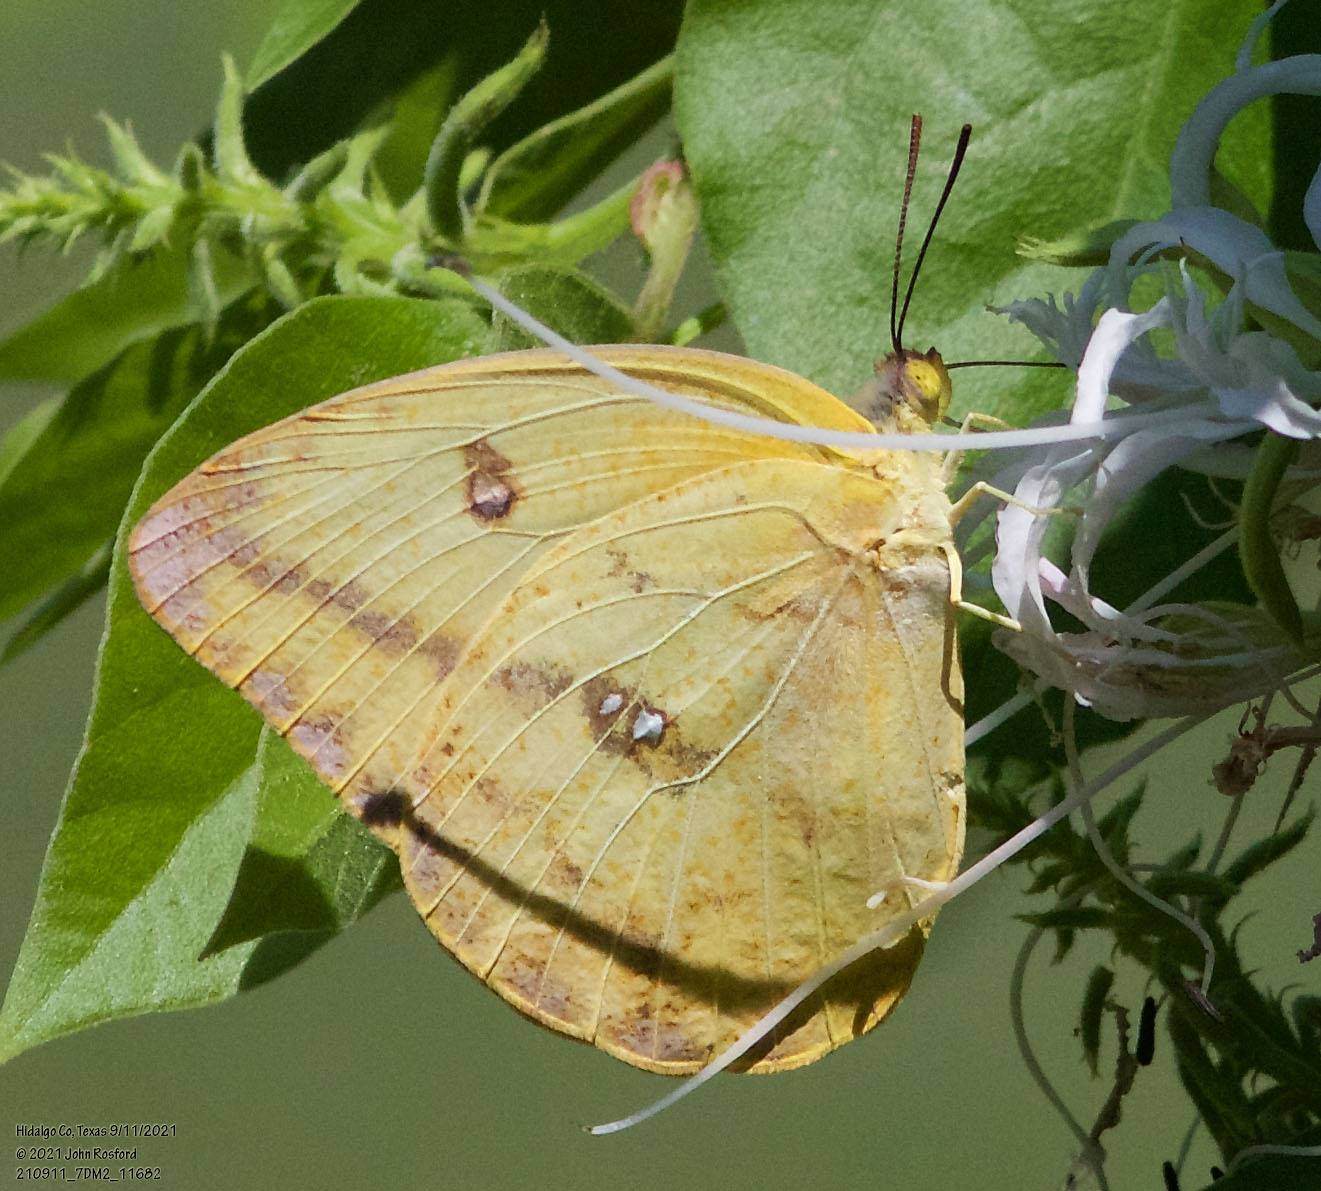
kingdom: Animalia
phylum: Arthropoda
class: Insecta
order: Lepidoptera
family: Pieridae
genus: Phoebis
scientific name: Phoebis agarithe
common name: Large orange sulphur
